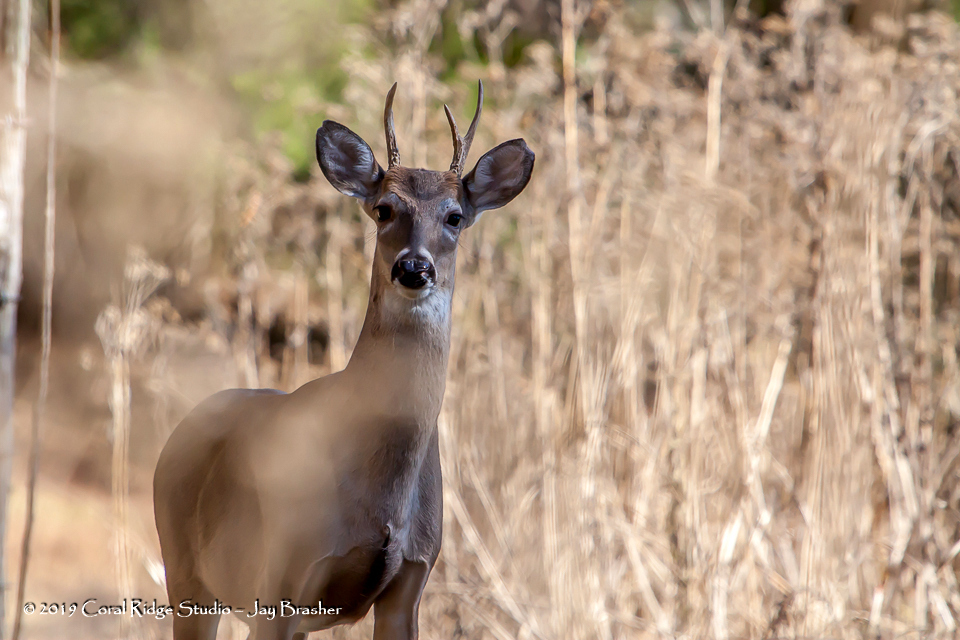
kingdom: Animalia
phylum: Chordata
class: Mammalia
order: Artiodactyla
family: Cervidae
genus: Odocoileus
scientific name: Odocoileus virginianus
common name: White-tailed deer
